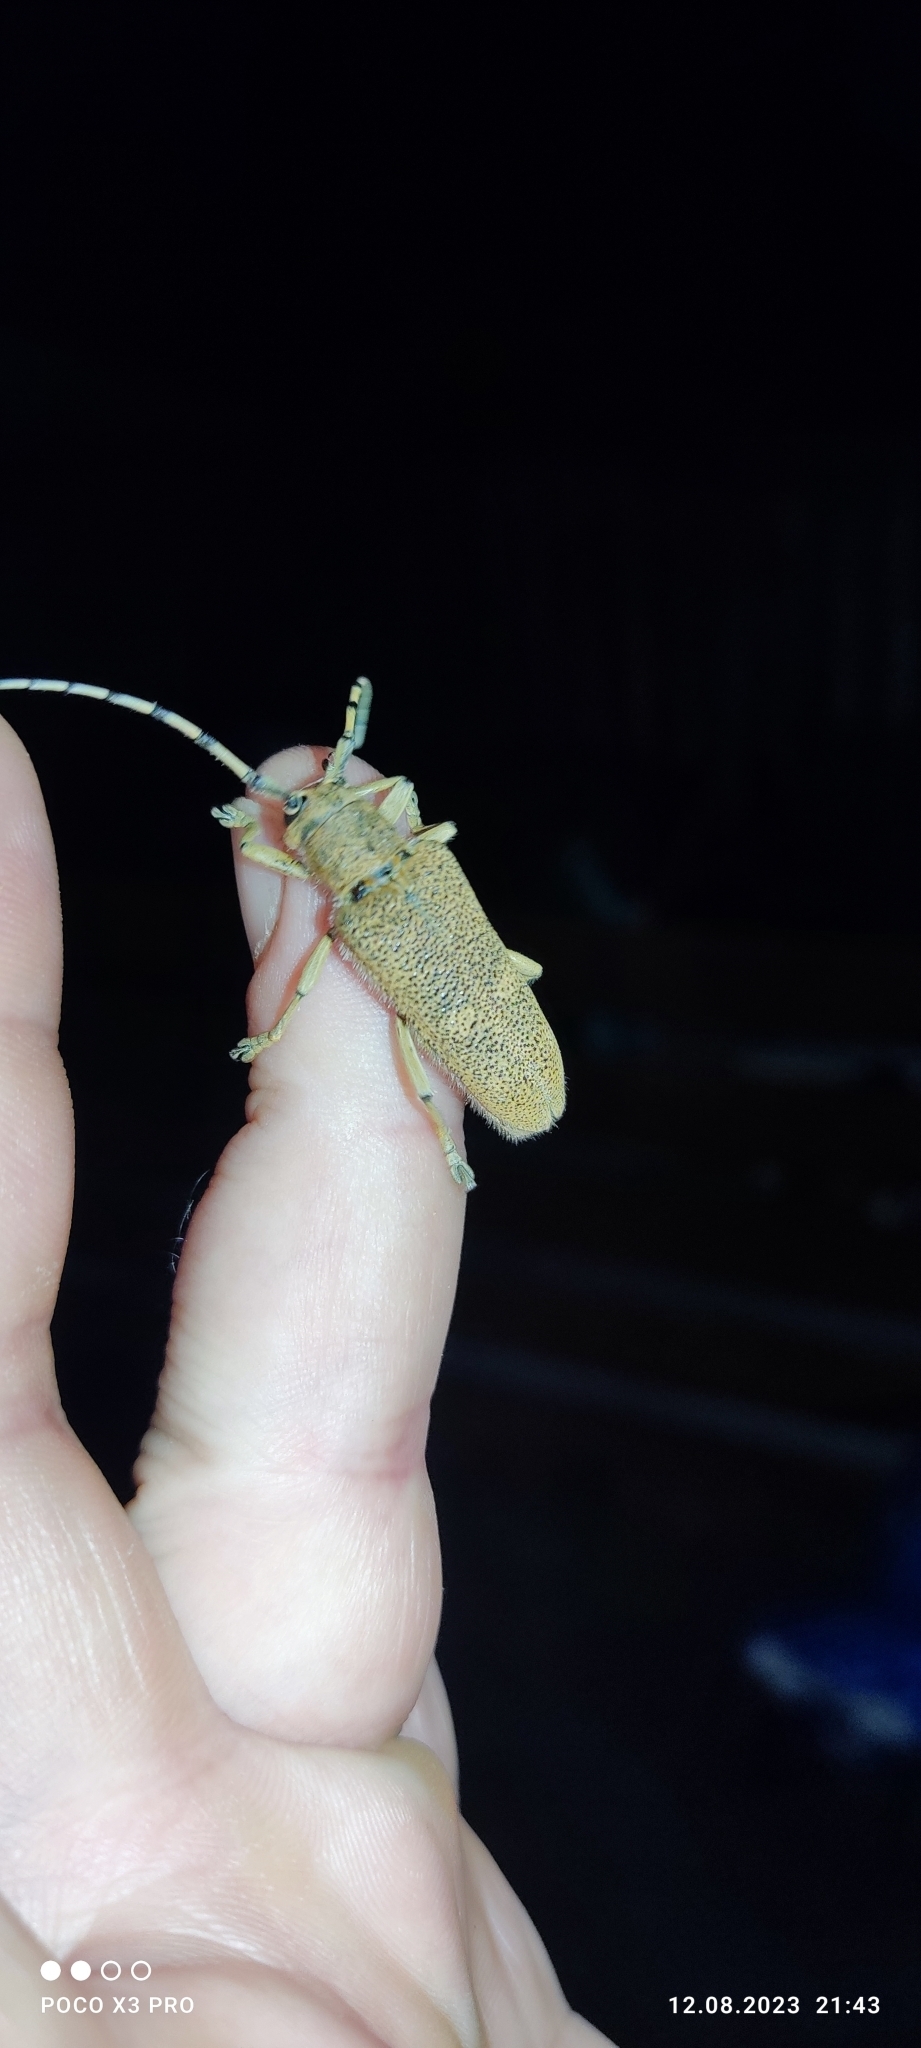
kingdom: Animalia
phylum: Arthropoda
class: Insecta
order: Coleoptera
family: Cerambycidae
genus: Saperda
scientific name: Saperda carcharias
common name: Poplar borer
